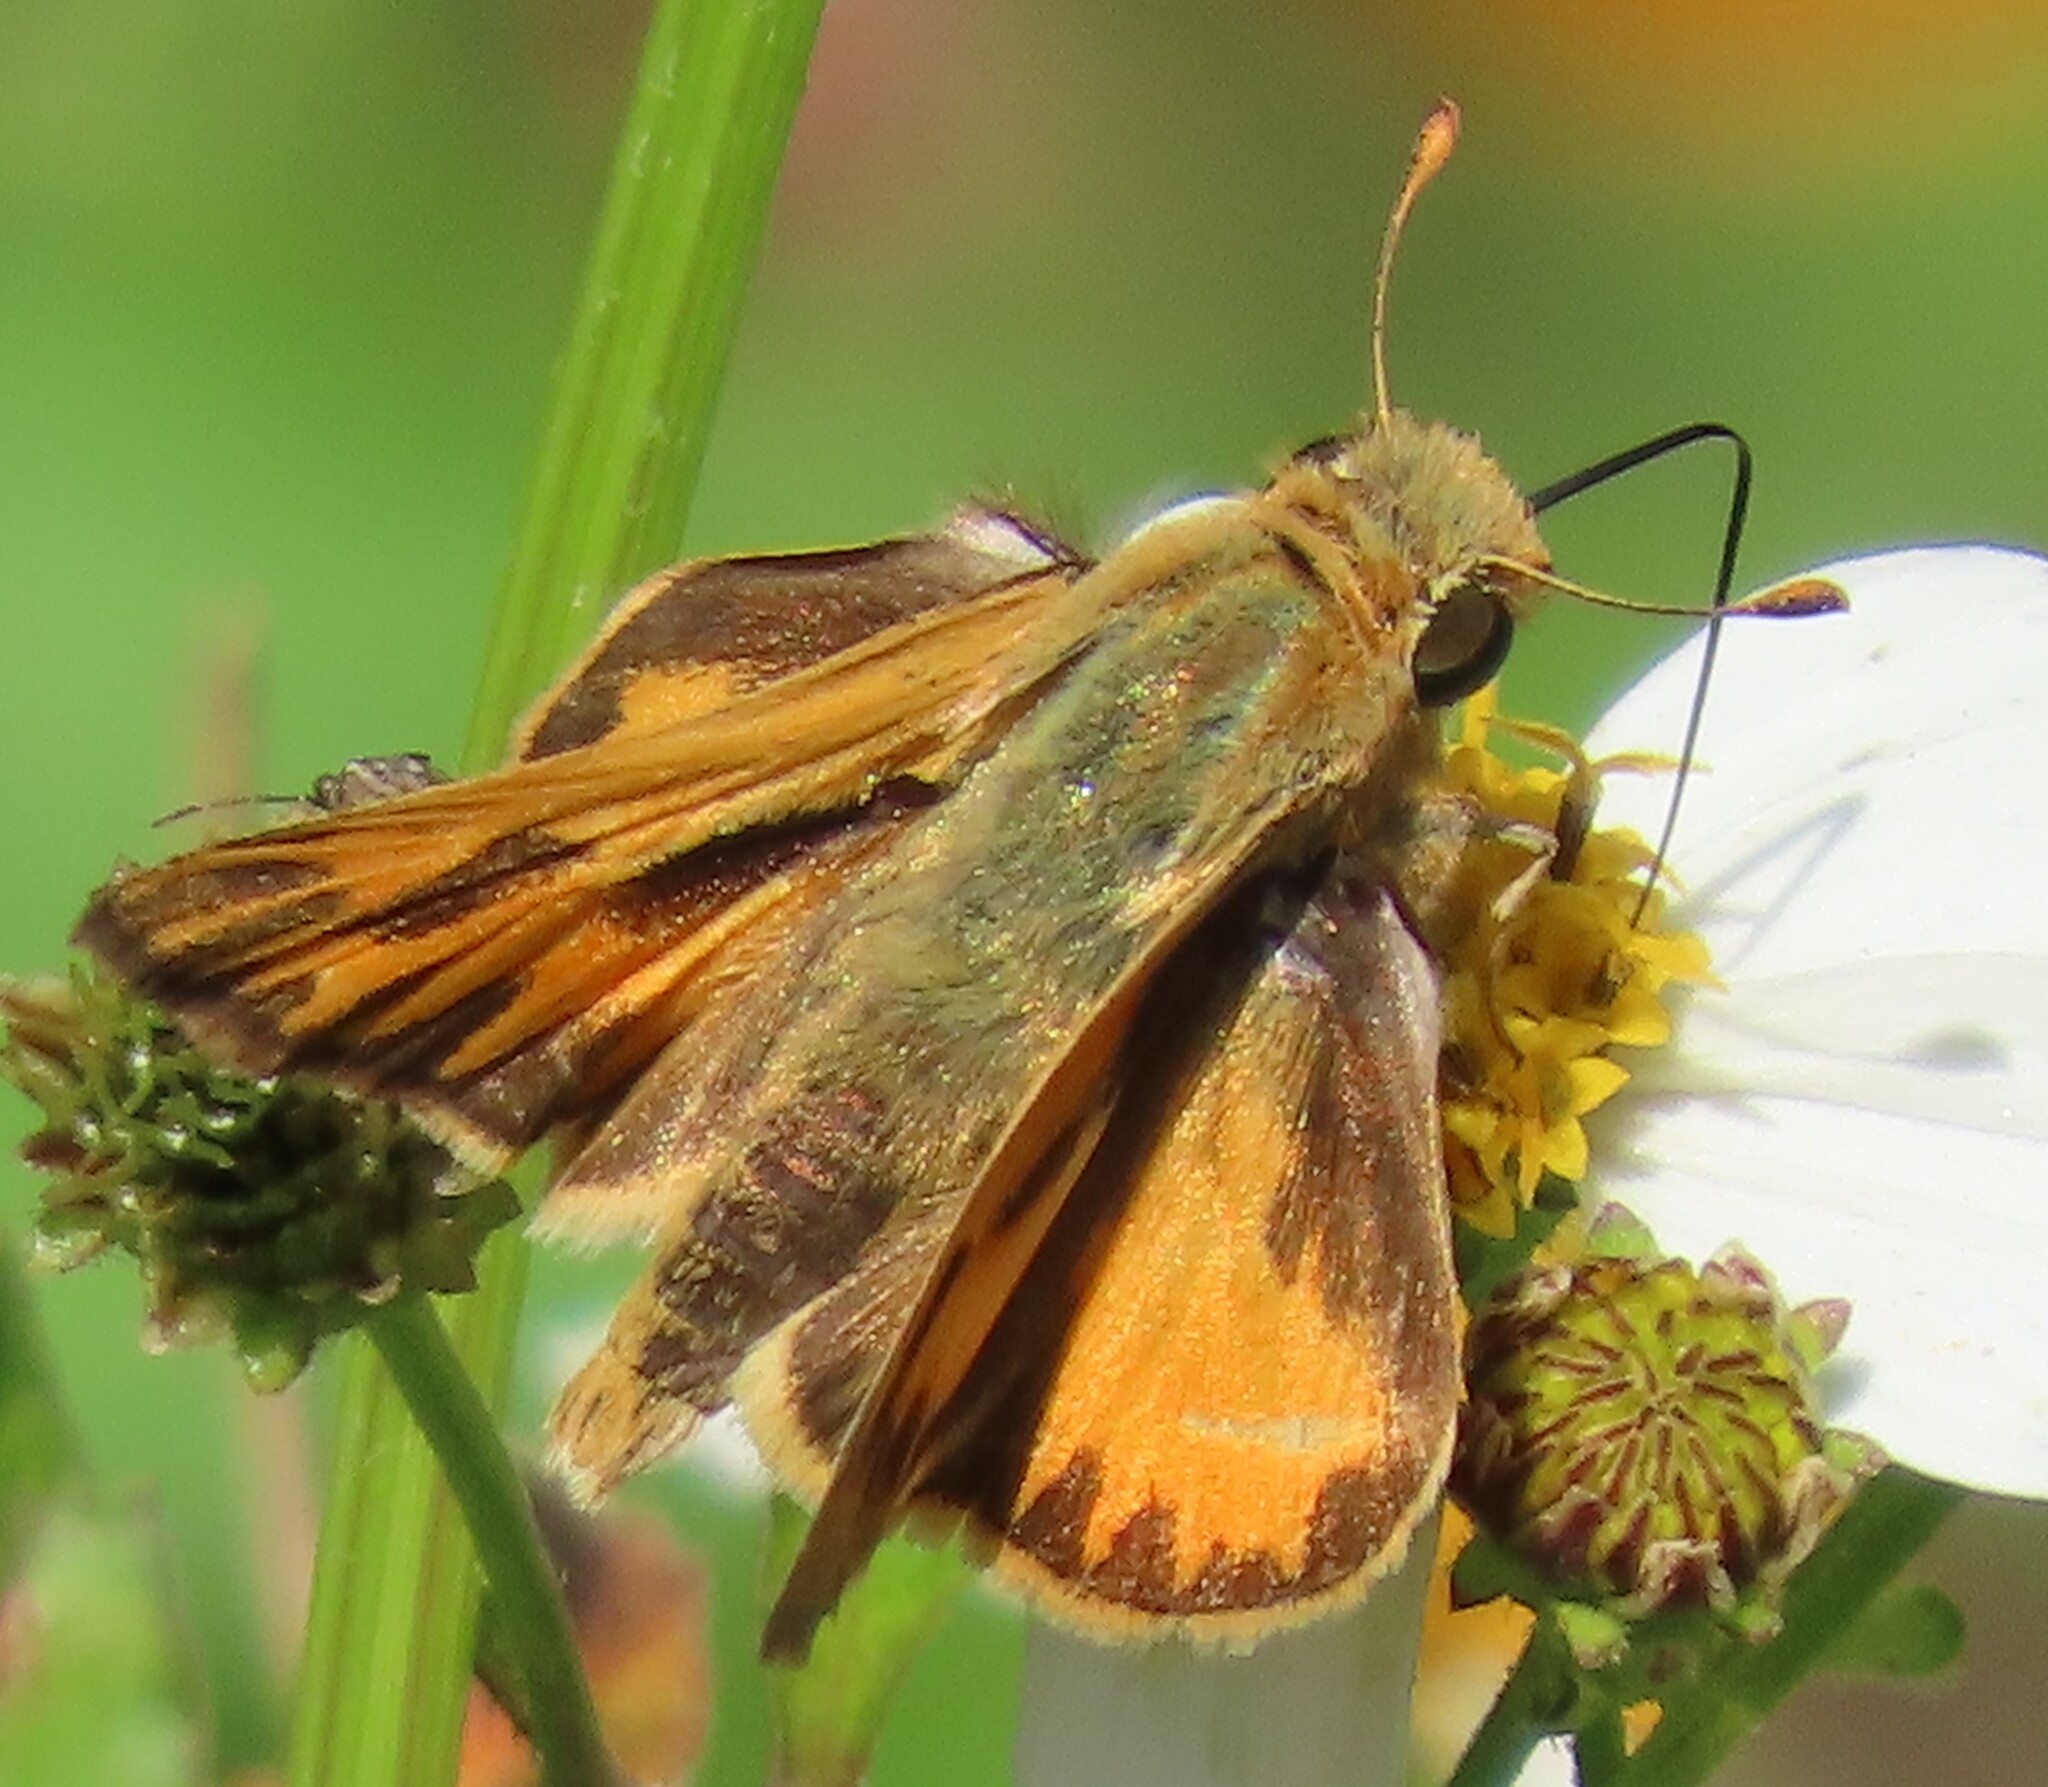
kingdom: Animalia
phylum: Arthropoda
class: Insecta
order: Lepidoptera
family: Hesperiidae
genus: Hylephila
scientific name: Hylephila phyleus
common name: Fiery skipper
